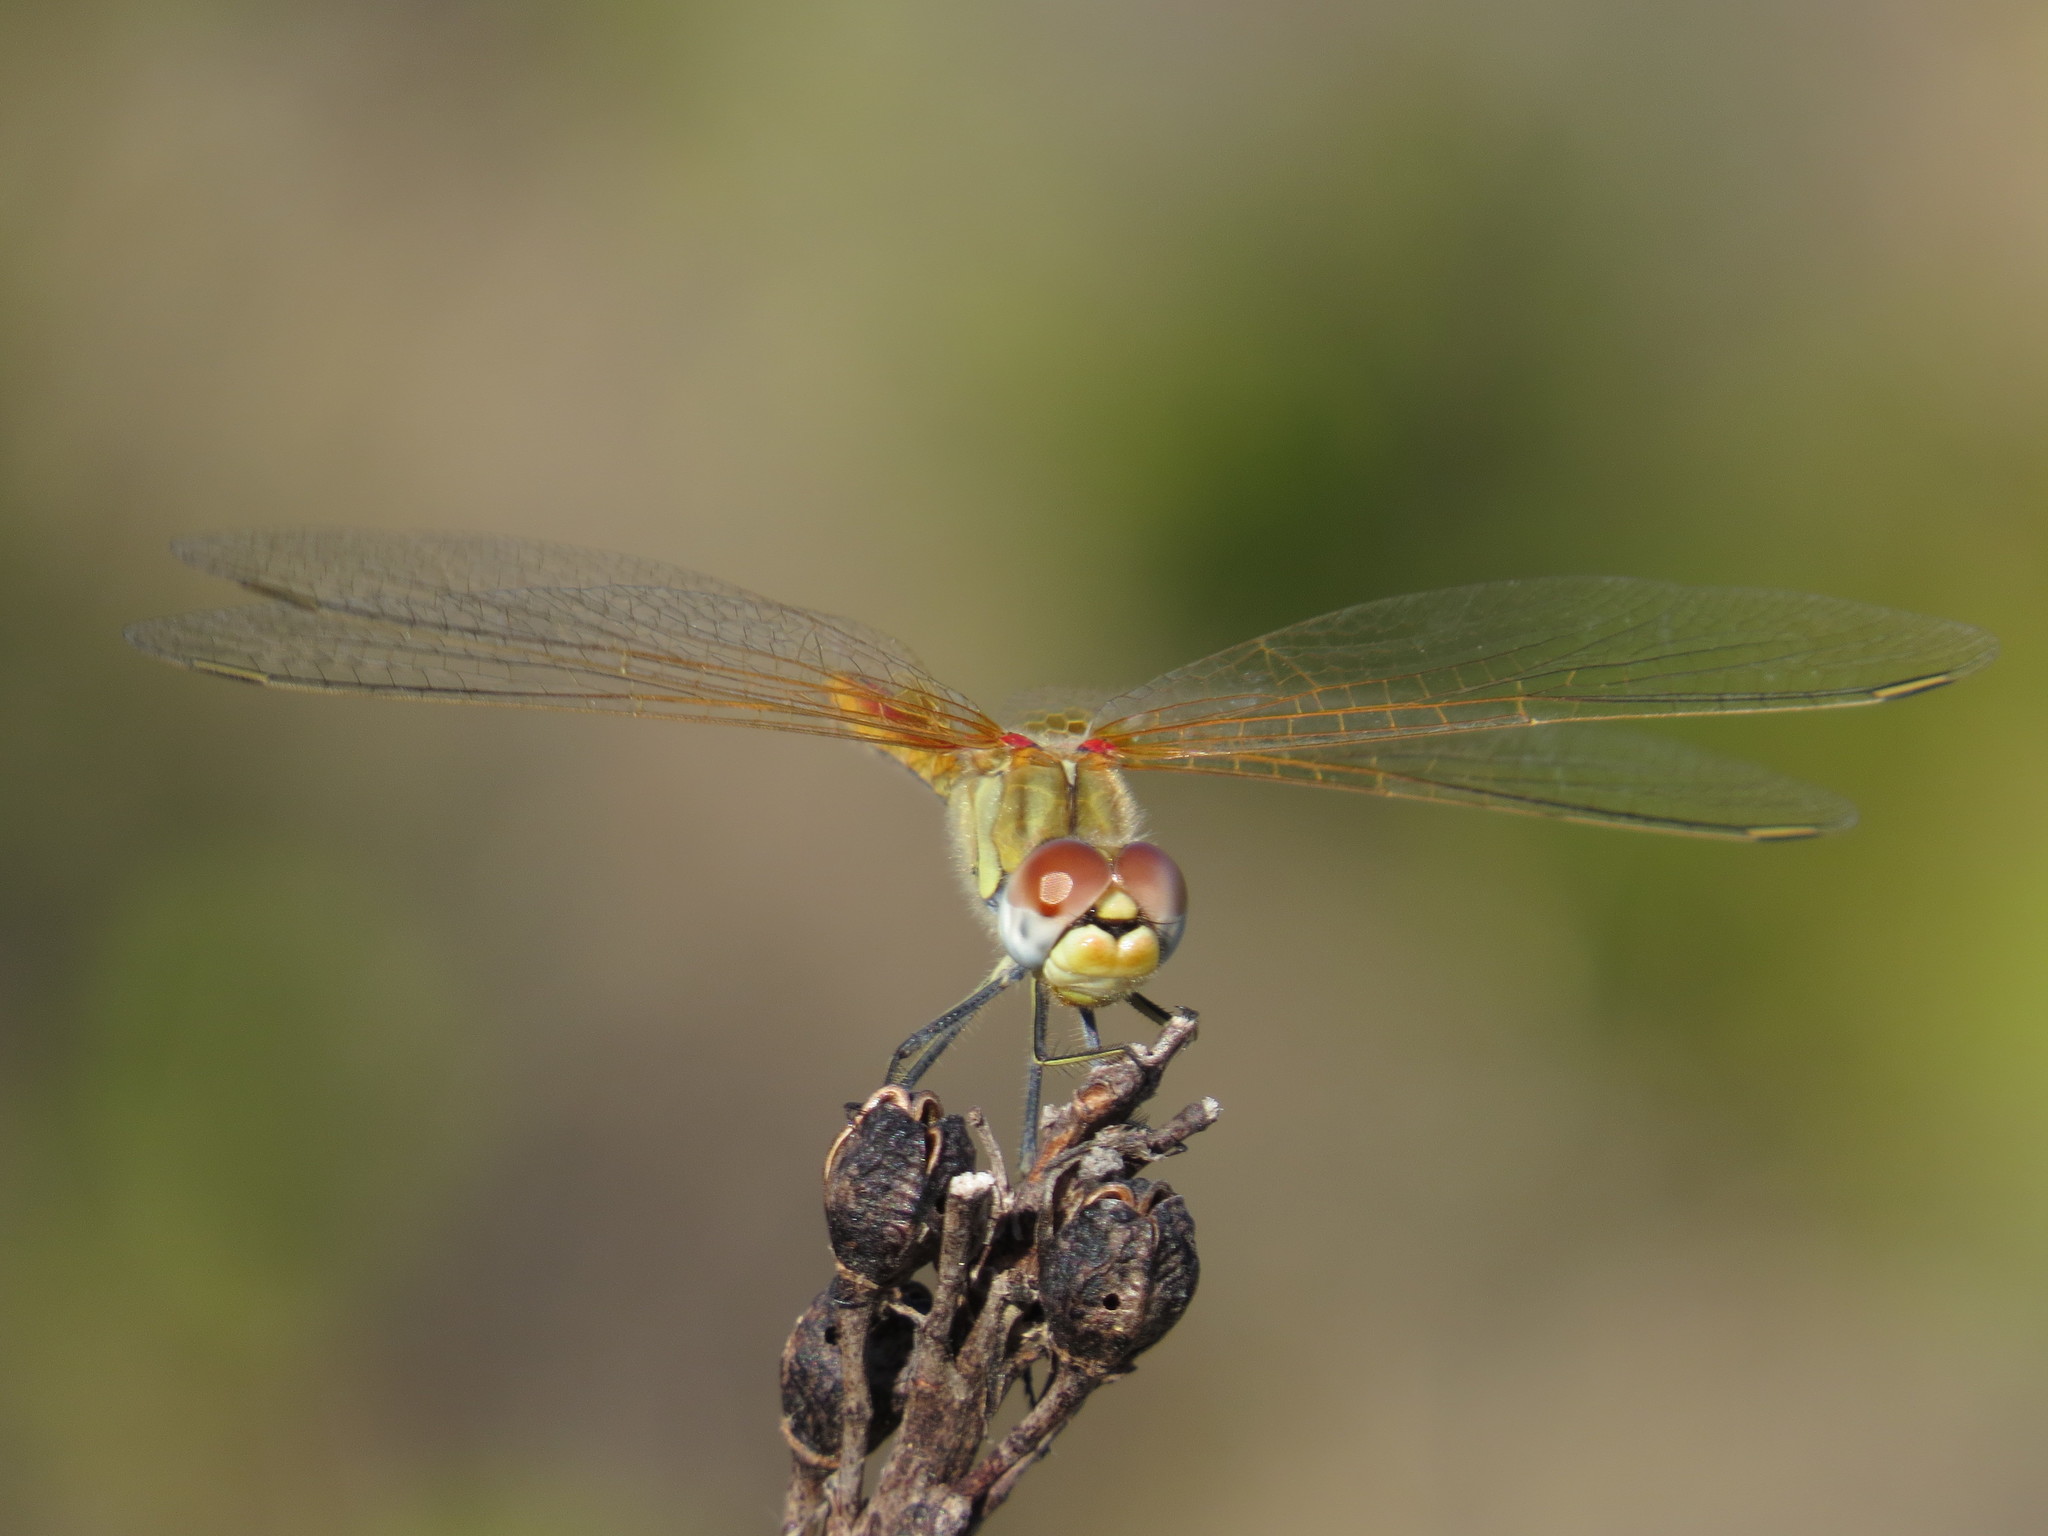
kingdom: Animalia
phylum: Arthropoda
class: Insecta
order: Odonata
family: Libellulidae
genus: Sympetrum
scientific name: Sympetrum fonscolombii
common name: Red-veined darter
